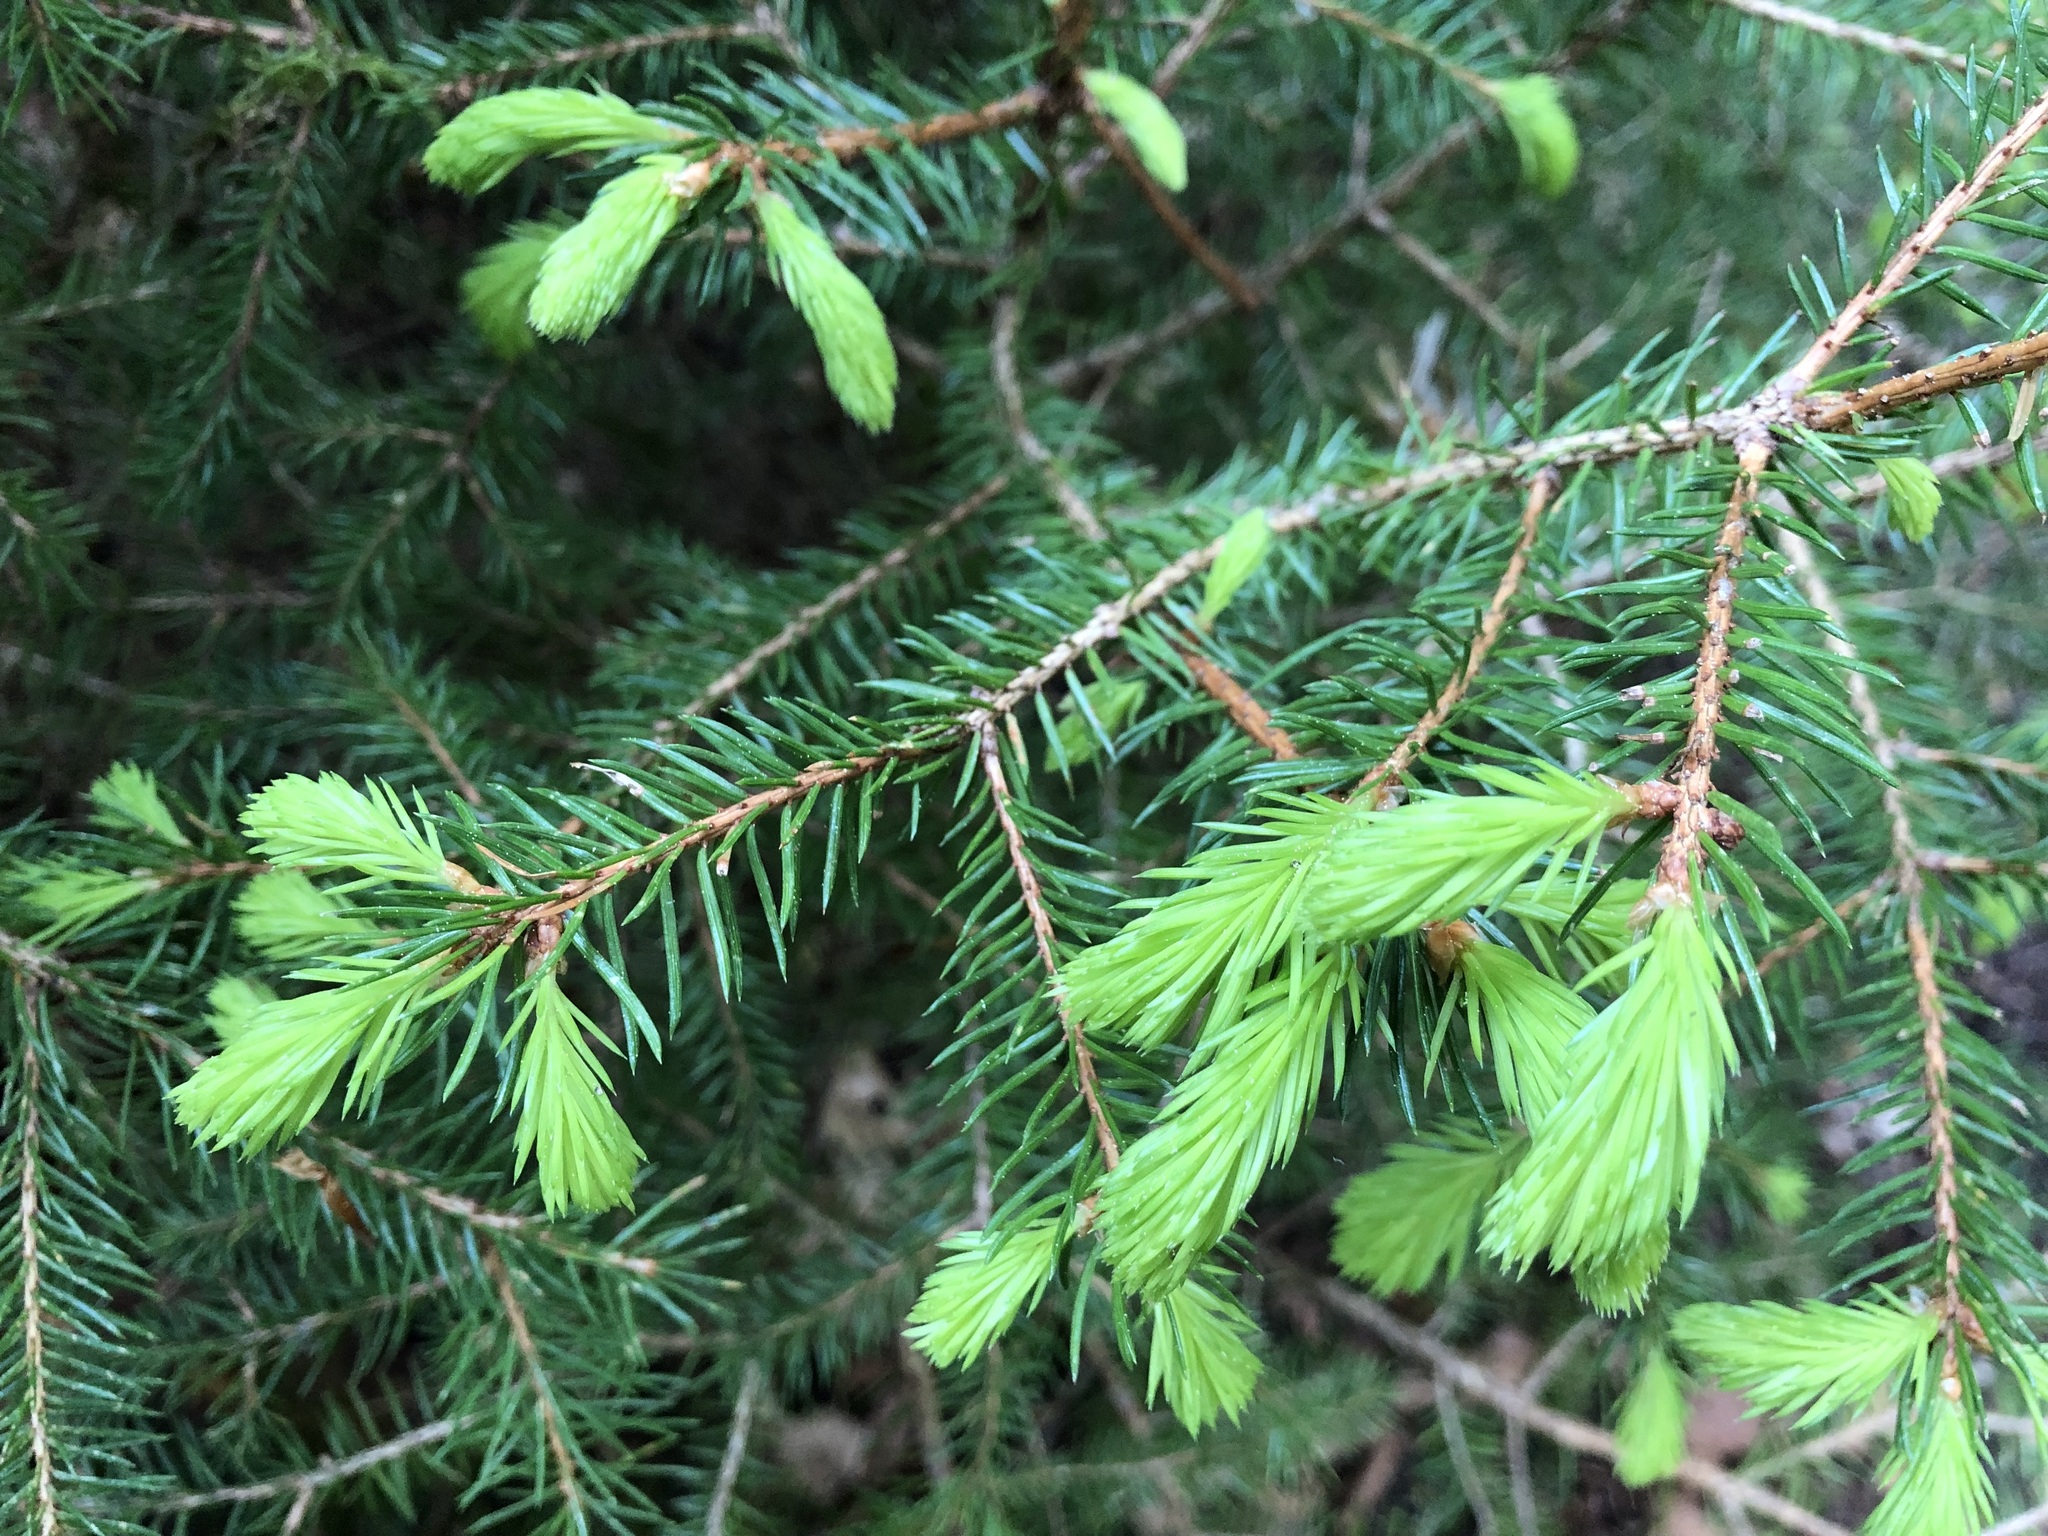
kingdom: Plantae
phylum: Tracheophyta
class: Pinopsida
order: Pinales
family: Pinaceae
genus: Picea
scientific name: Picea abies
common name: Norway spruce
